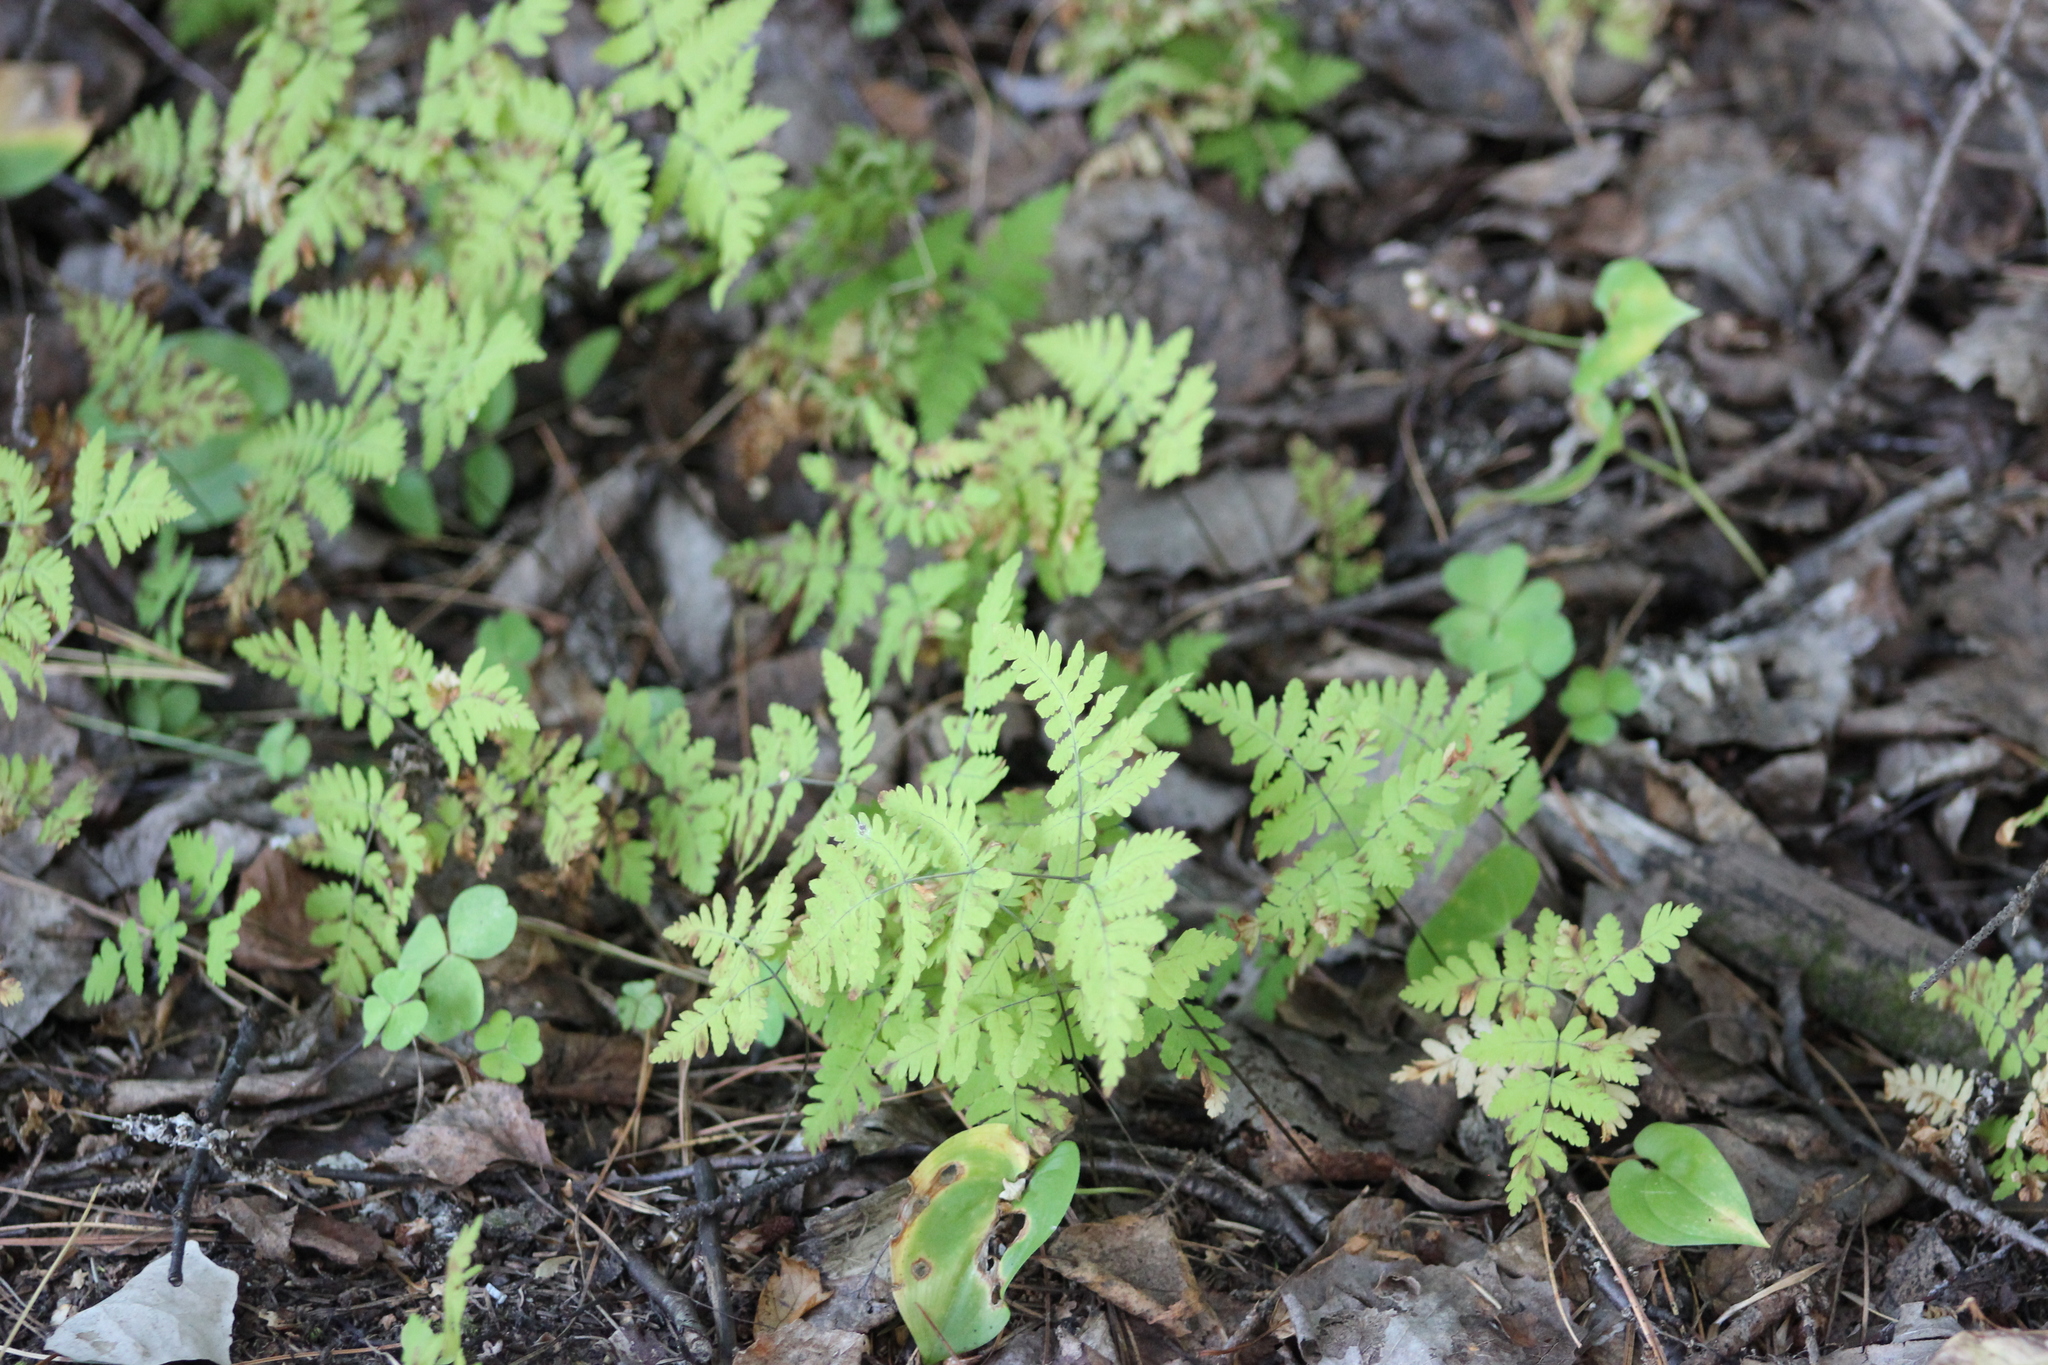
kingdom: Plantae
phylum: Tracheophyta
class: Polypodiopsida
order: Polypodiales
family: Cystopteridaceae
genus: Gymnocarpium
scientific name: Gymnocarpium dryopteris
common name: Oak fern
